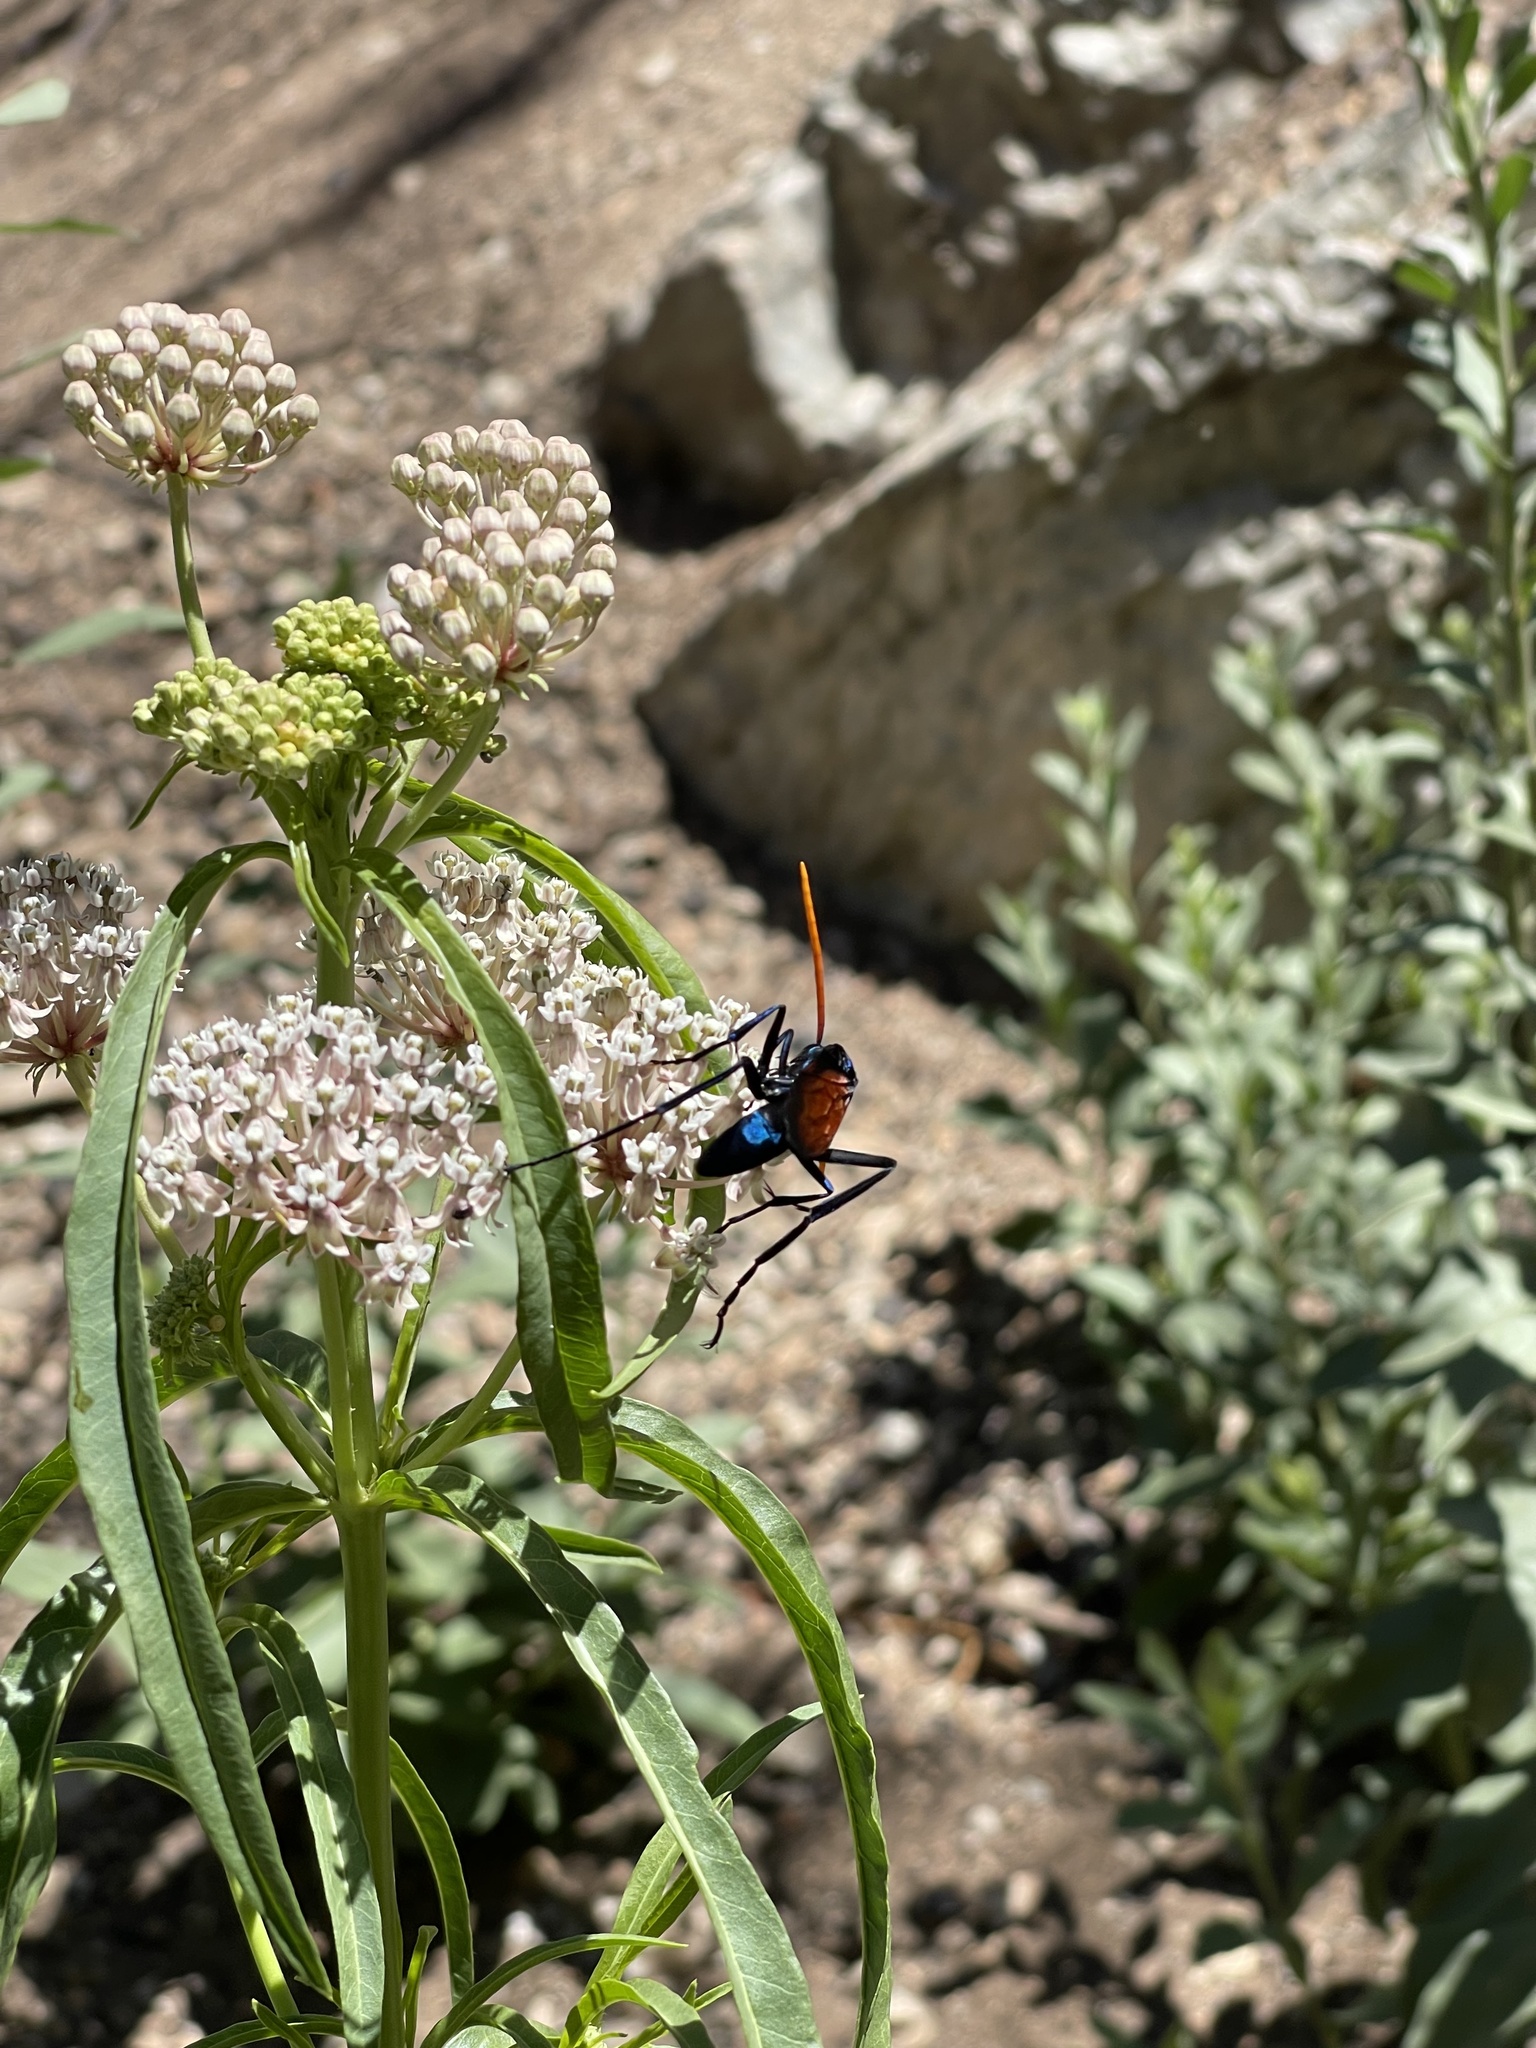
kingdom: Animalia
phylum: Arthropoda
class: Insecta
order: Hymenoptera
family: Pompilidae
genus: Pepsis
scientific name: Pepsis mildei
